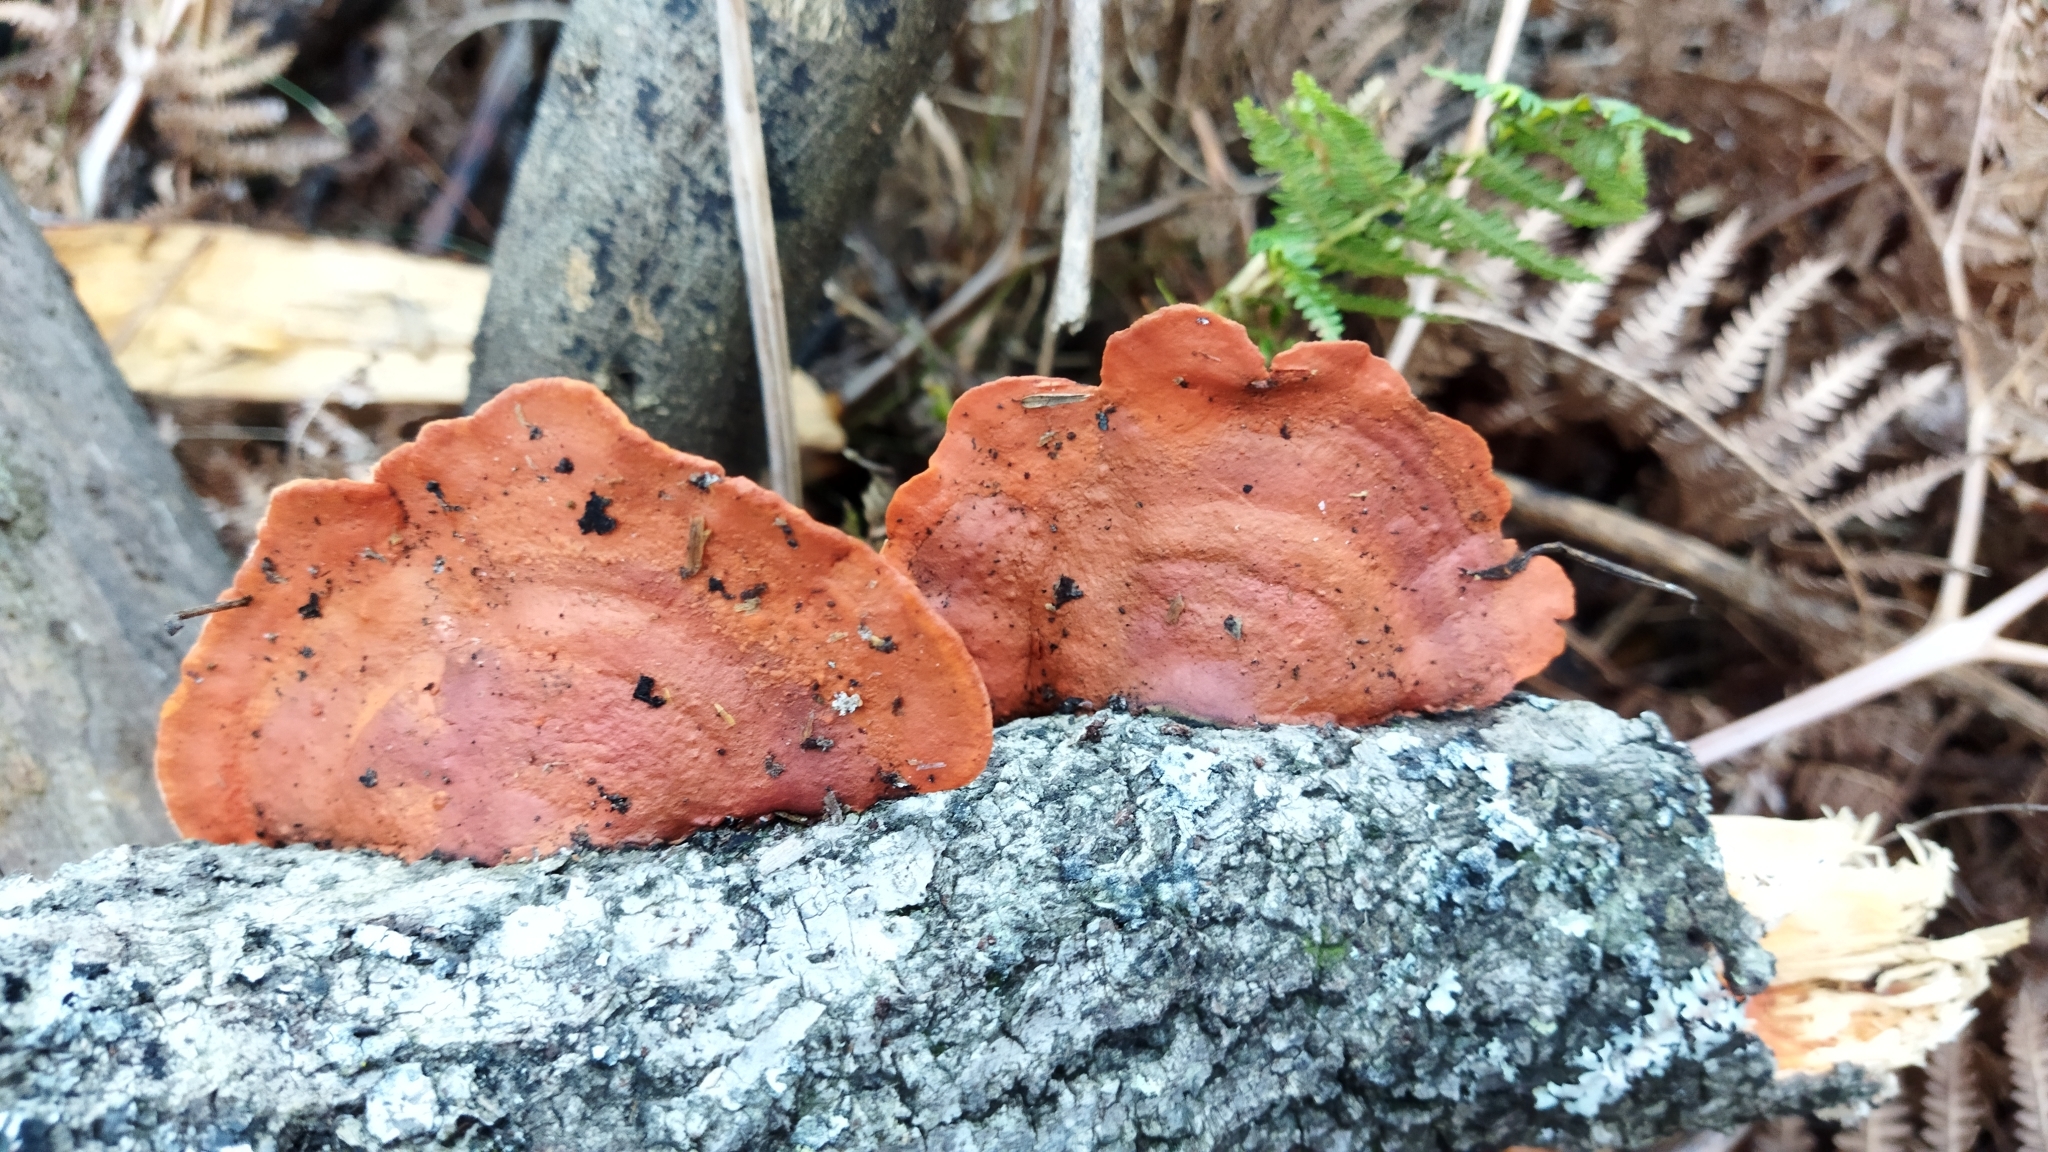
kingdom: Fungi
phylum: Basidiomycota
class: Agaricomycetes
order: Polyporales
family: Polyporaceae
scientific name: Polyporaceae
